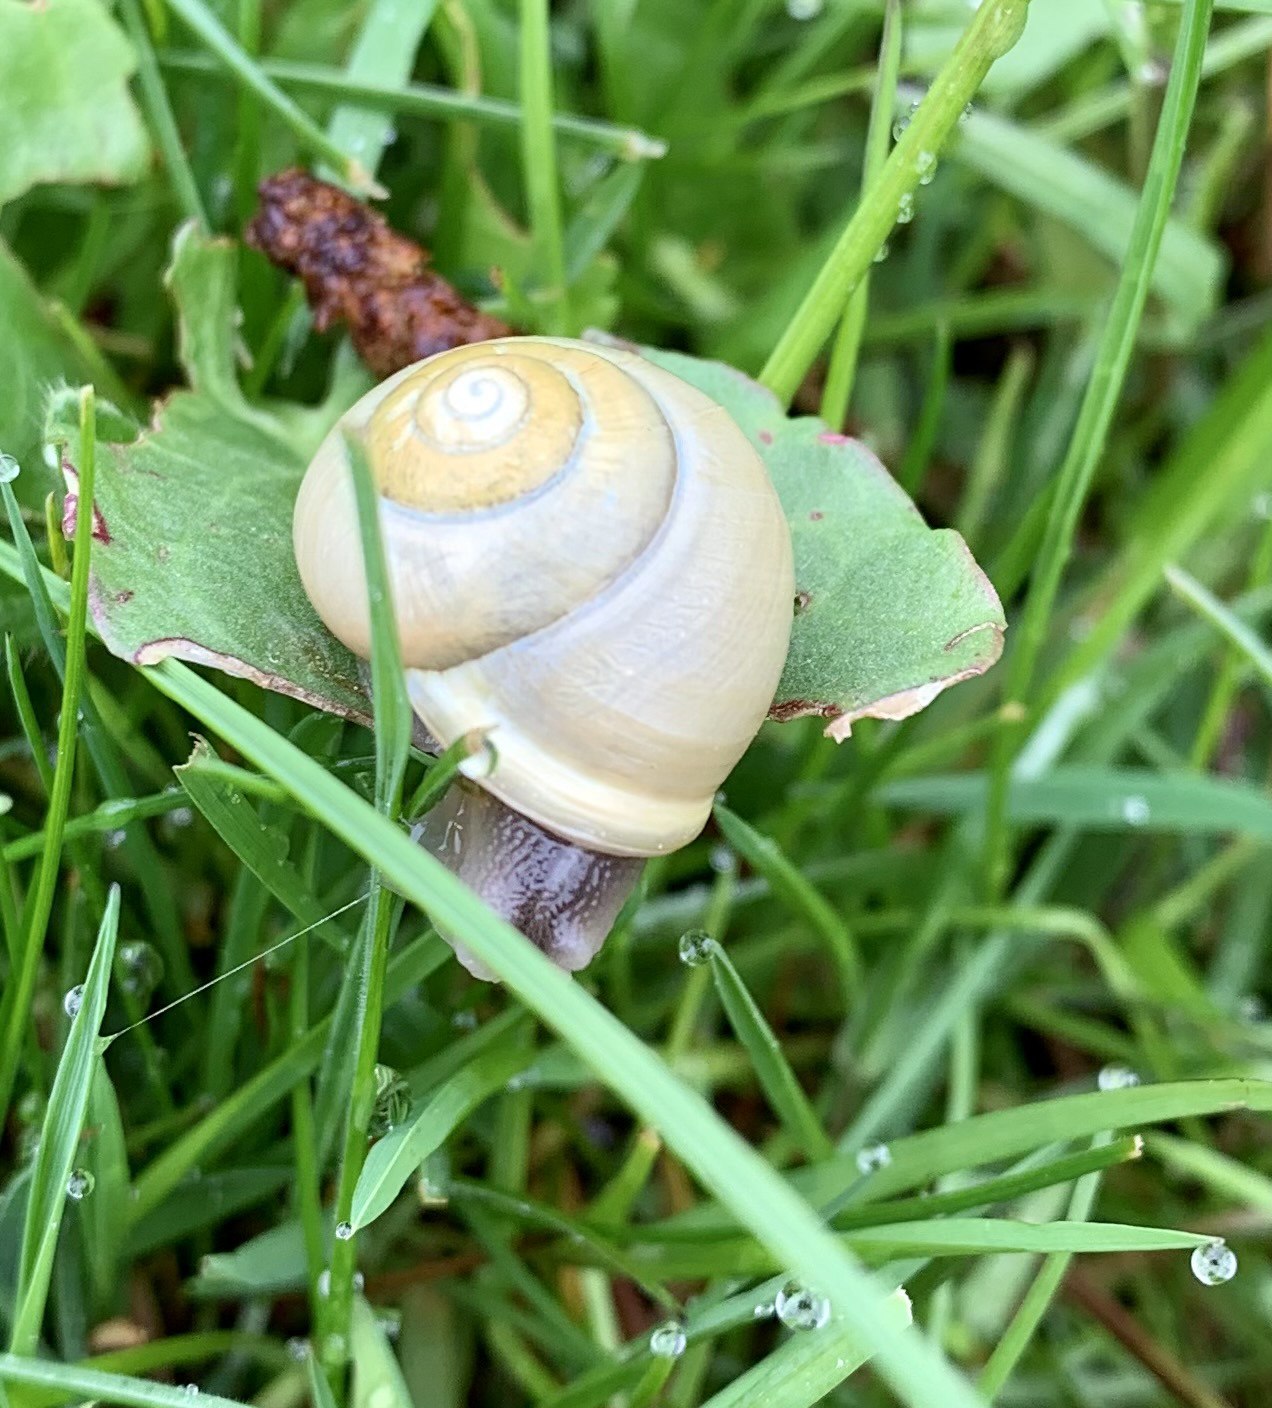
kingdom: Animalia
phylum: Mollusca
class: Gastropoda
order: Stylommatophora
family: Helicidae
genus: Cepaea
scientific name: Cepaea hortensis
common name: White-lip gardensnail
